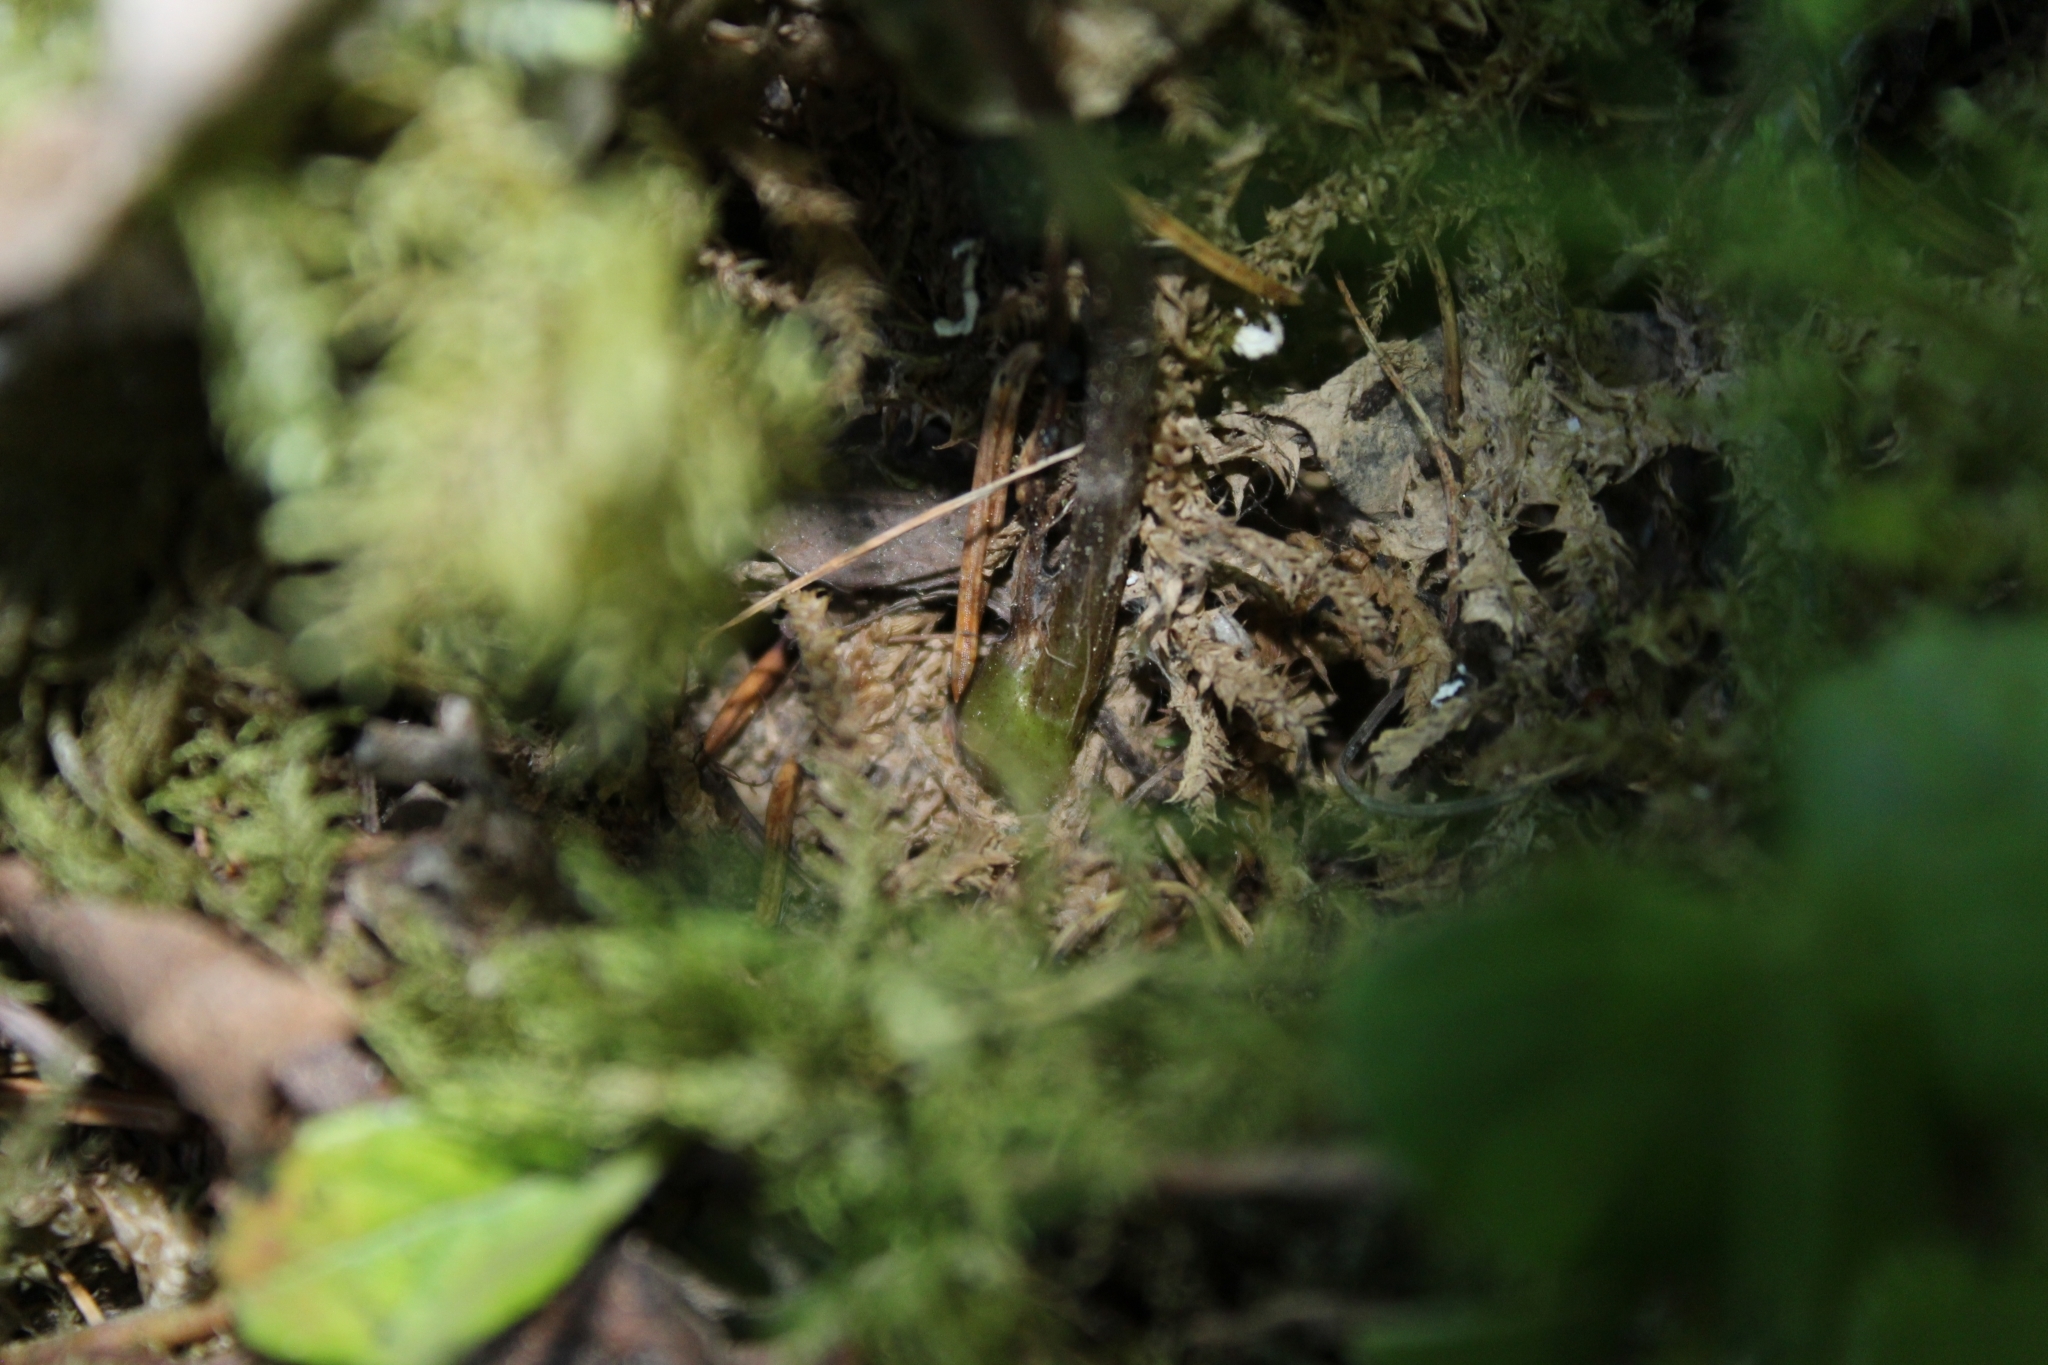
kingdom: Plantae
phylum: Tracheophyta
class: Liliopsida
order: Asparagales
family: Orchidaceae
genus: Calypso
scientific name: Calypso bulbosa
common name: Calypso
